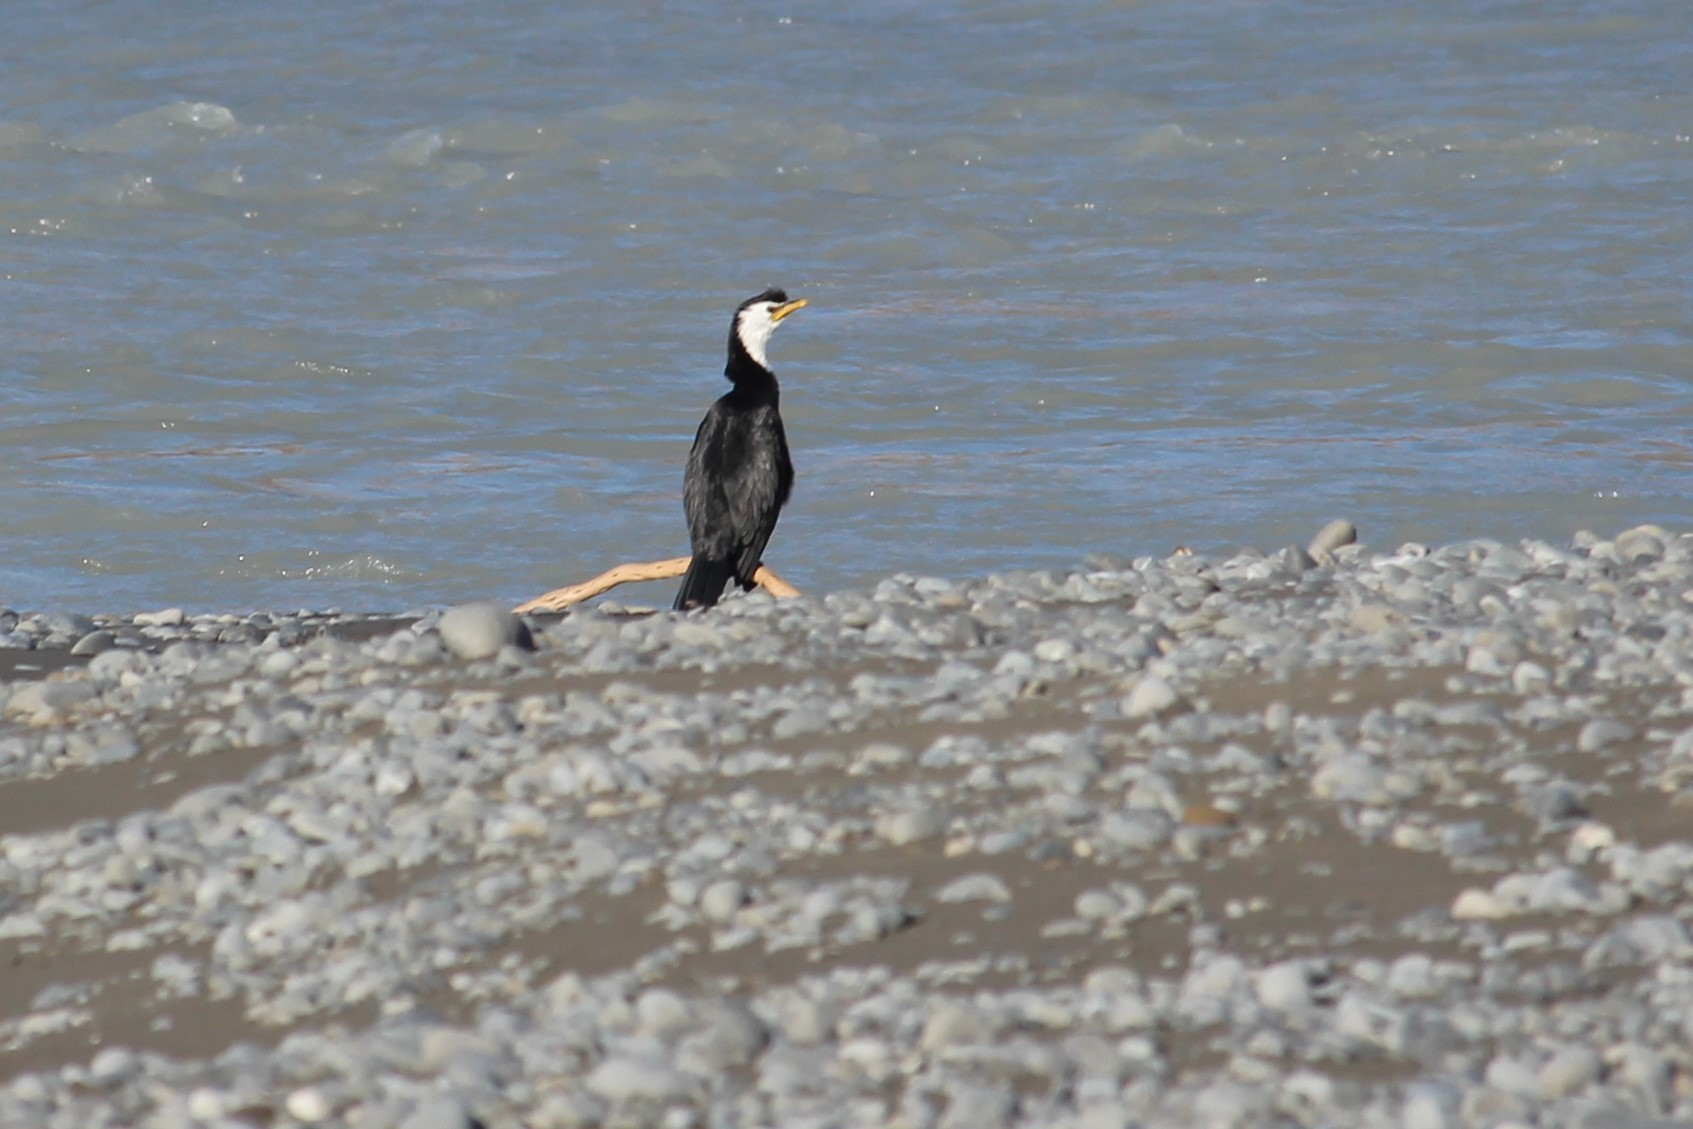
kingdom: Animalia
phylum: Chordata
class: Aves
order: Suliformes
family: Phalacrocoracidae
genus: Microcarbo
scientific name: Microcarbo melanoleucos
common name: Little pied cormorant
